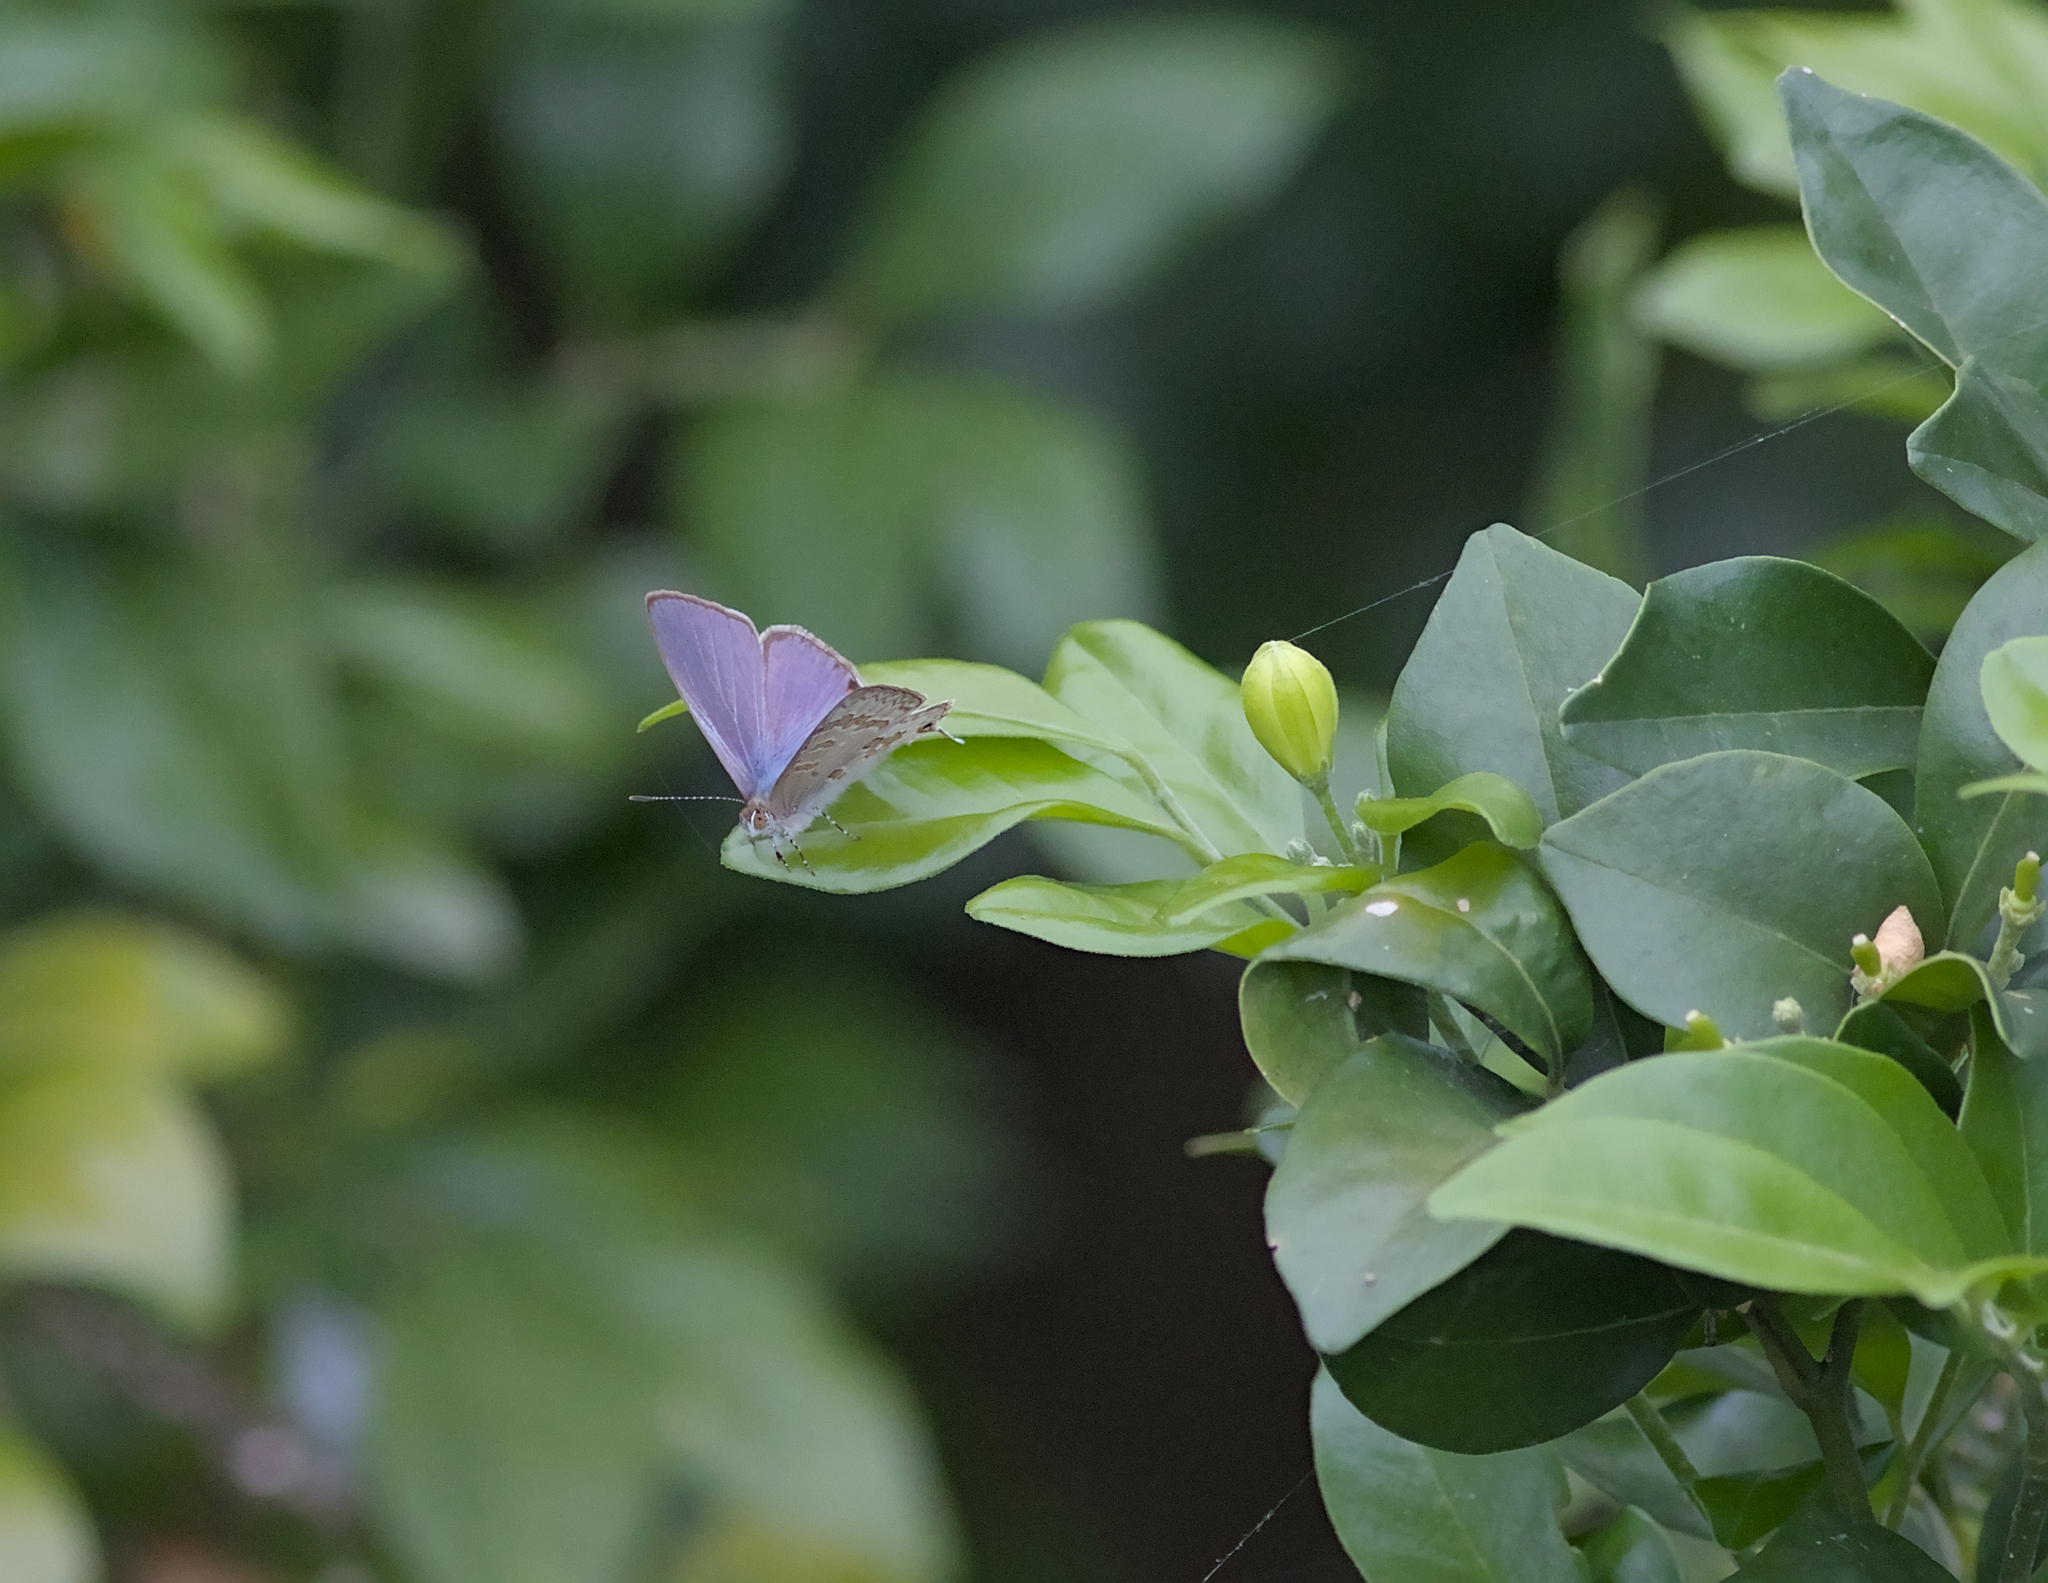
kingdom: Animalia
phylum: Arthropoda
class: Insecta
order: Lepidoptera
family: Lycaenidae
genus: Catopyrops
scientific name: Catopyrops florinda
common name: Speckled line-blue
